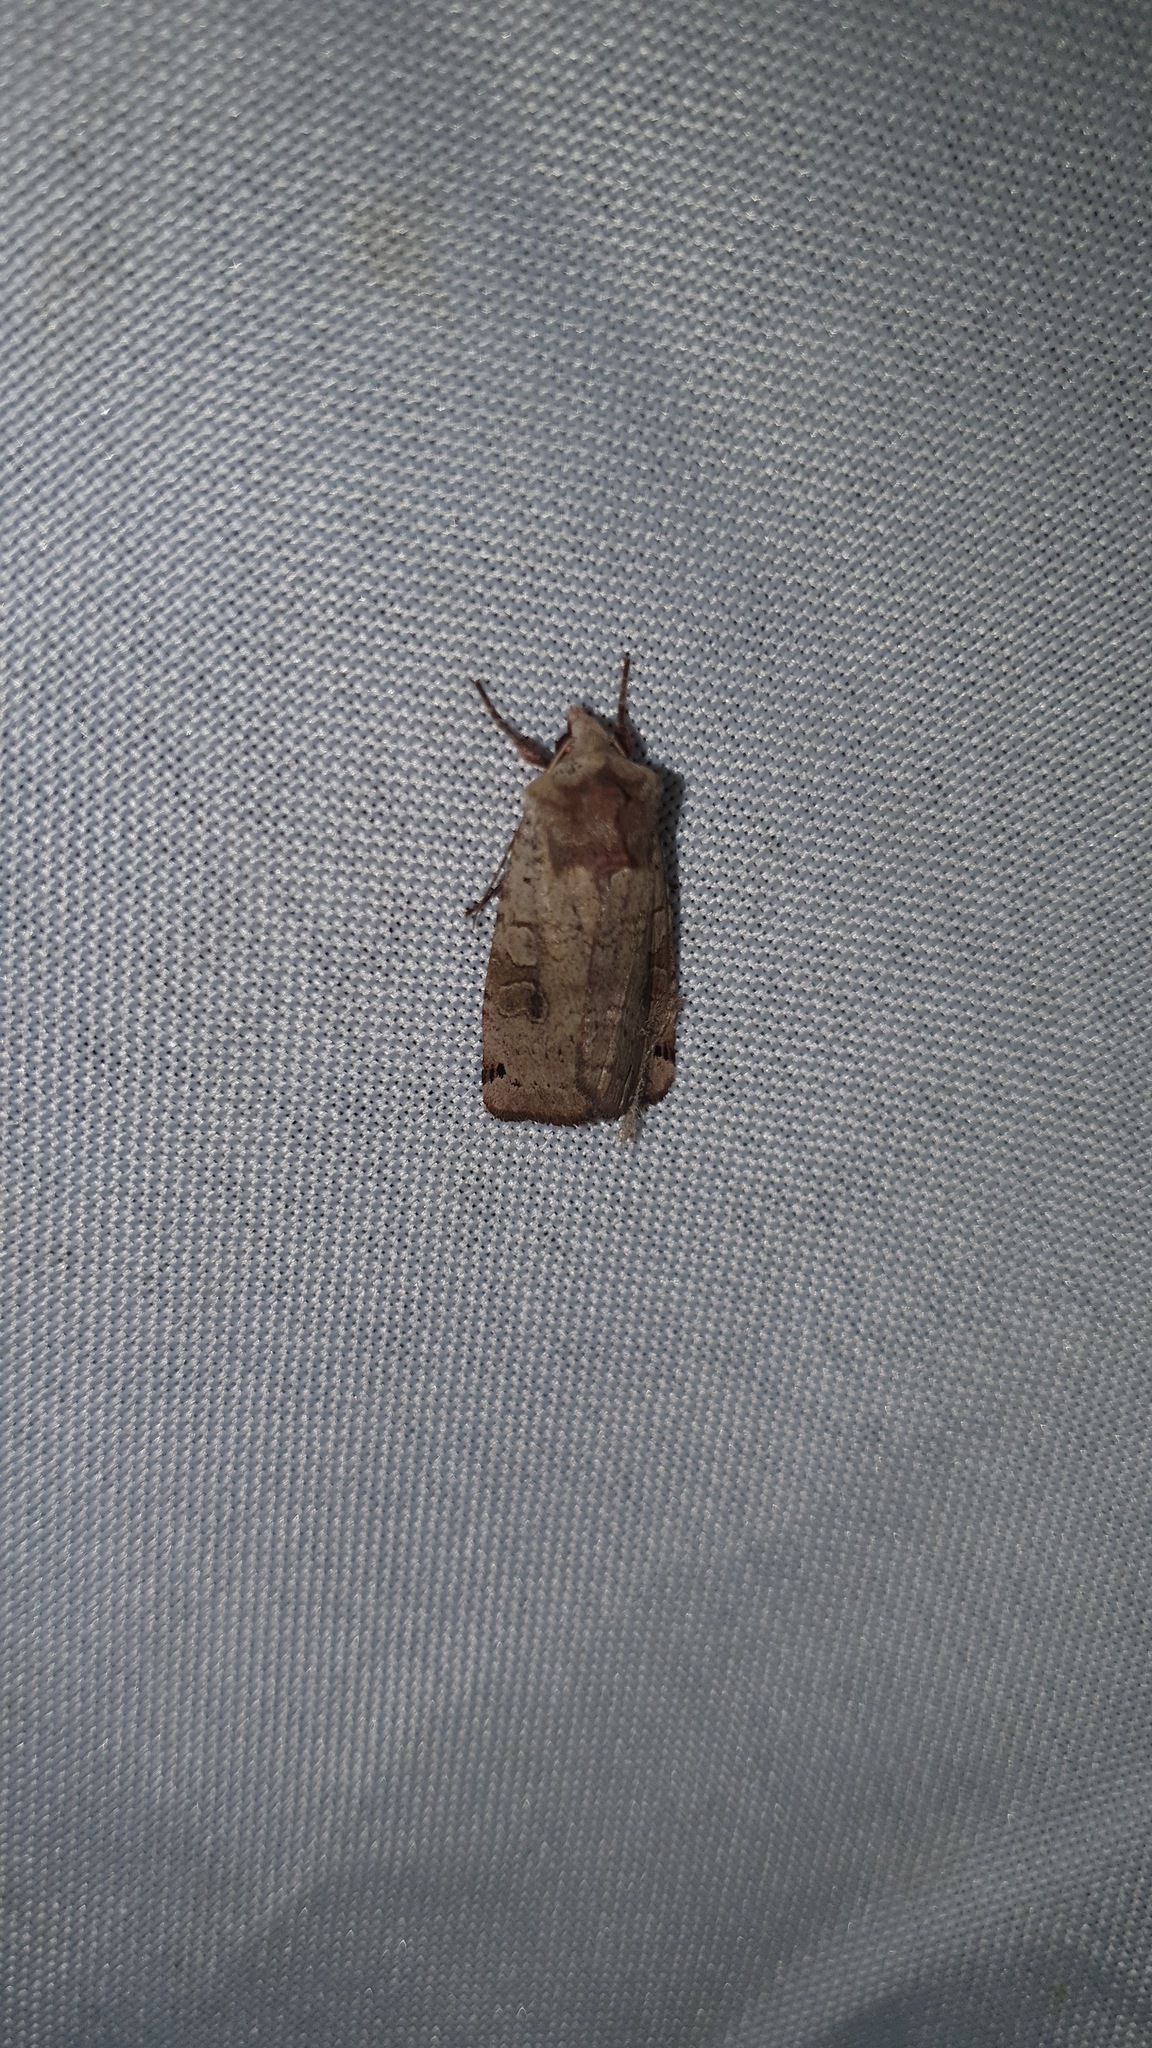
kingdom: Animalia
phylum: Arthropoda
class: Insecta
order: Lepidoptera
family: Noctuidae
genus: Xestia
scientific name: Xestia baja
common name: Dotted clay
